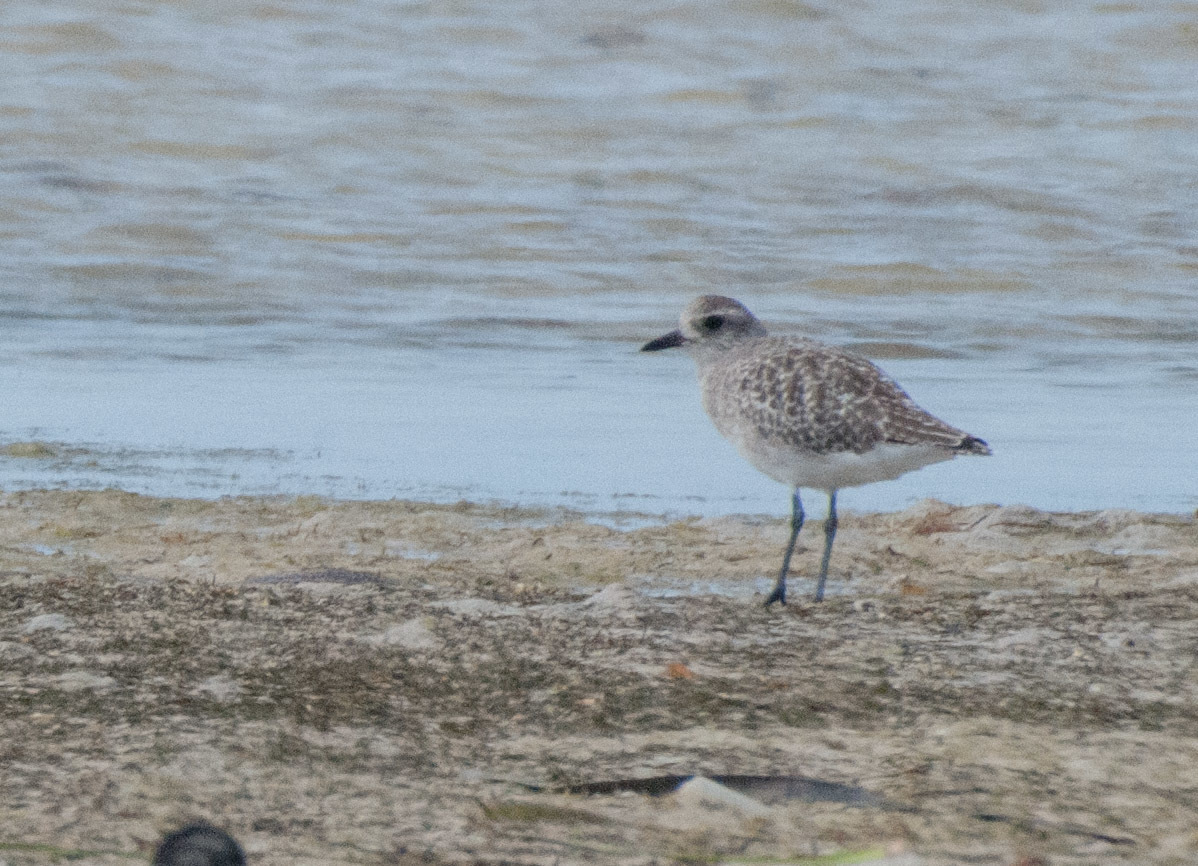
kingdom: Animalia
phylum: Chordata
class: Aves
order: Charadriiformes
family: Charadriidae
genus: Pluvialis
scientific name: Pluvialis squatarola
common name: Grey plover
